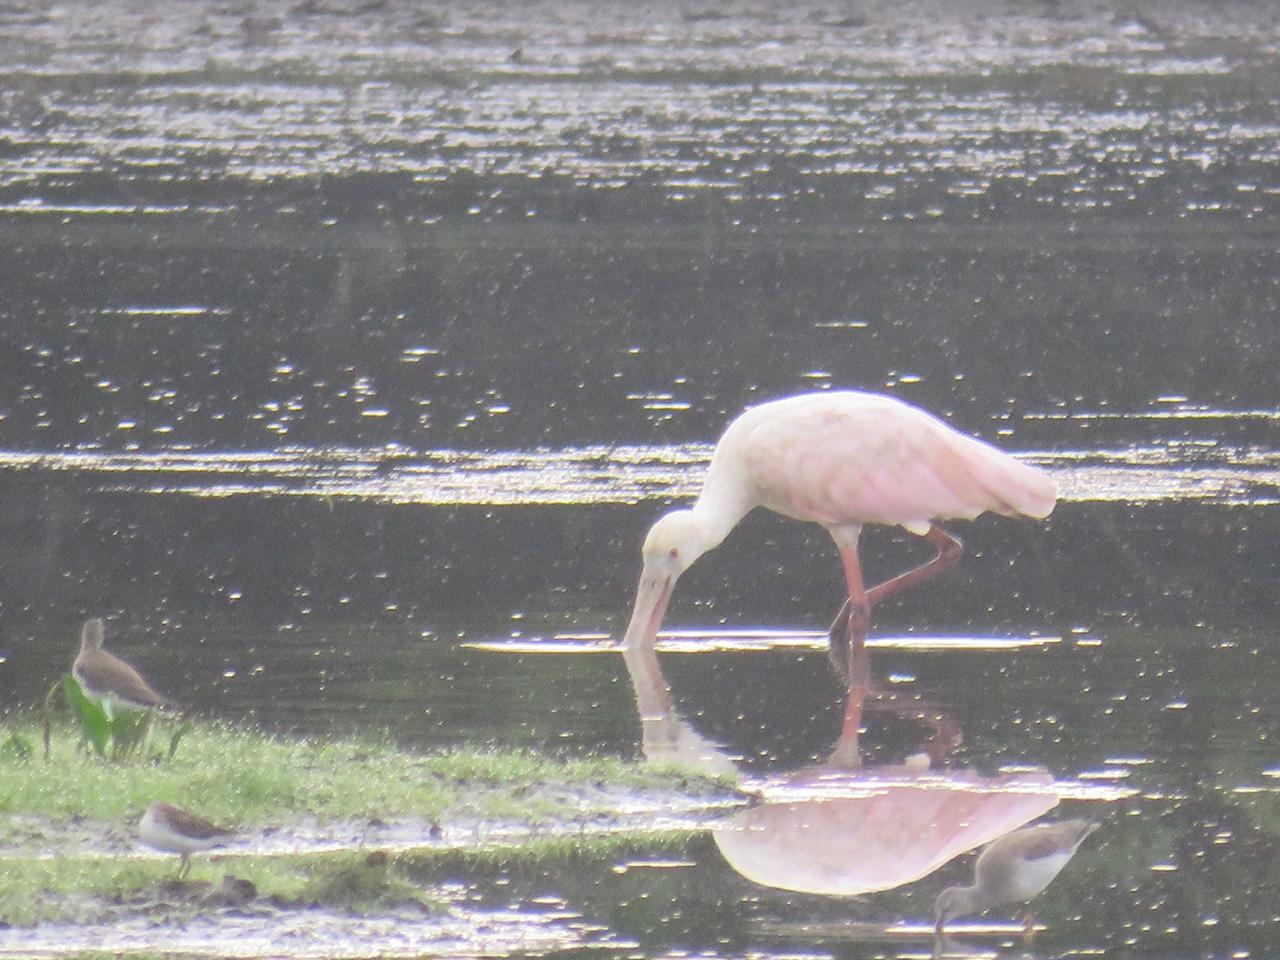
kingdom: Animalia
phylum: Chordata
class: Aves
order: Pelecaniformes
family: Threskiornithidae
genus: Platalea
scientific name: Platalea ajaja
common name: Roseate spoonbill
